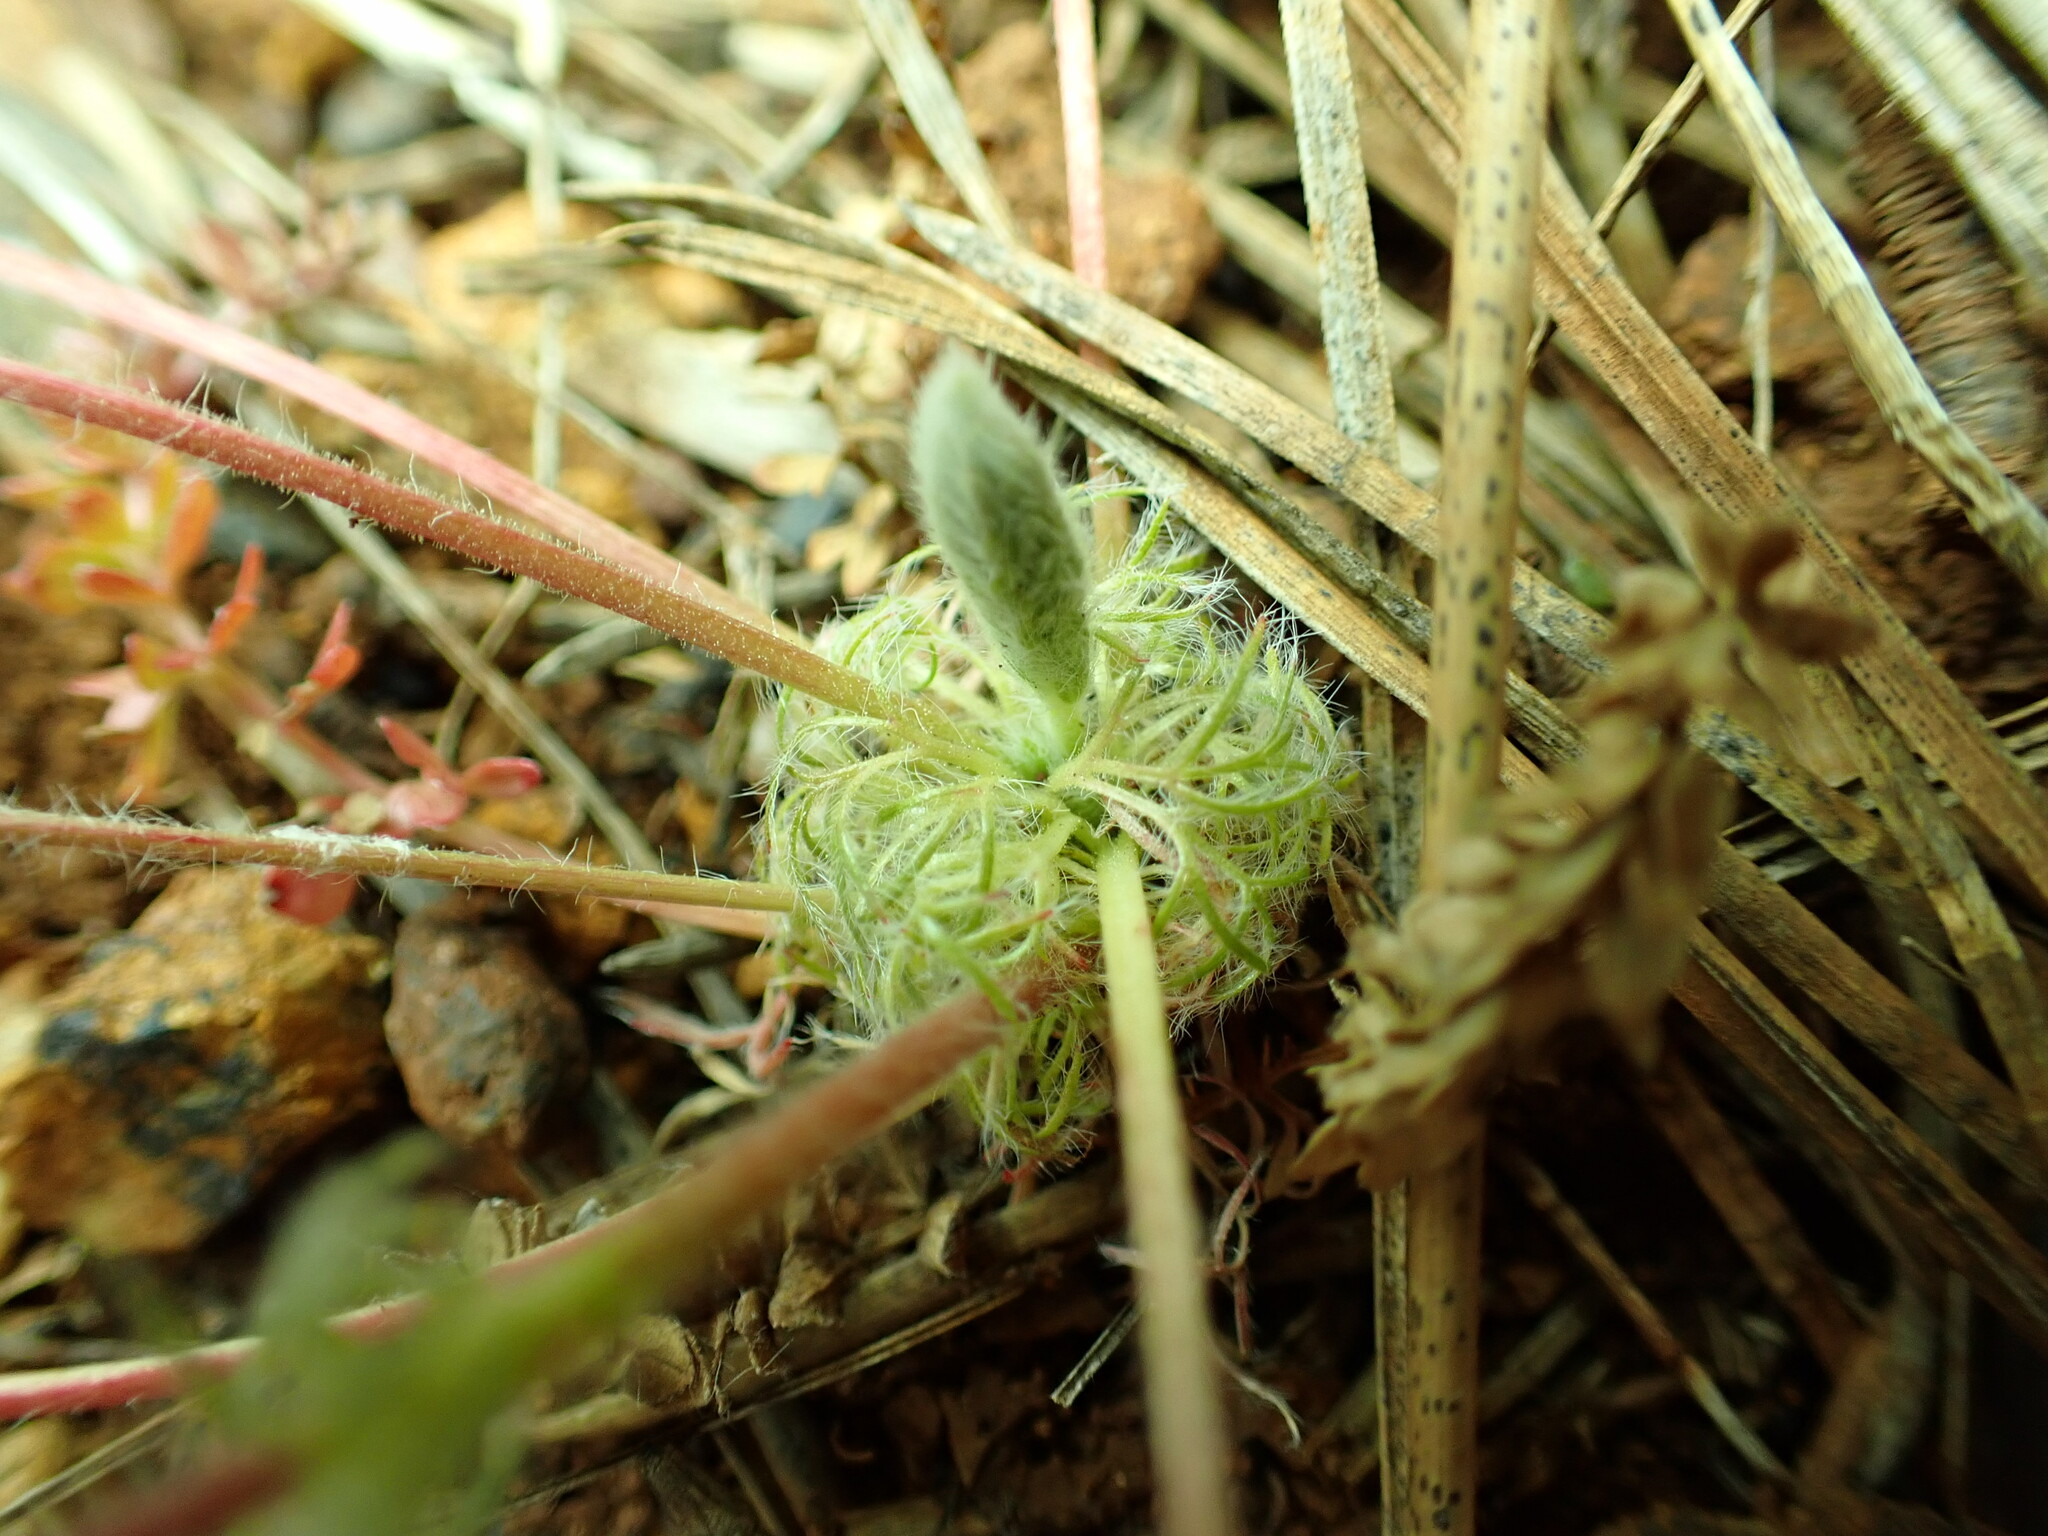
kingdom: Plantae
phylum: Tracheophyta
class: Magnoliopsida
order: Rosales
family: Rosaceae
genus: Potentilla
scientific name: Potentilla howellii
